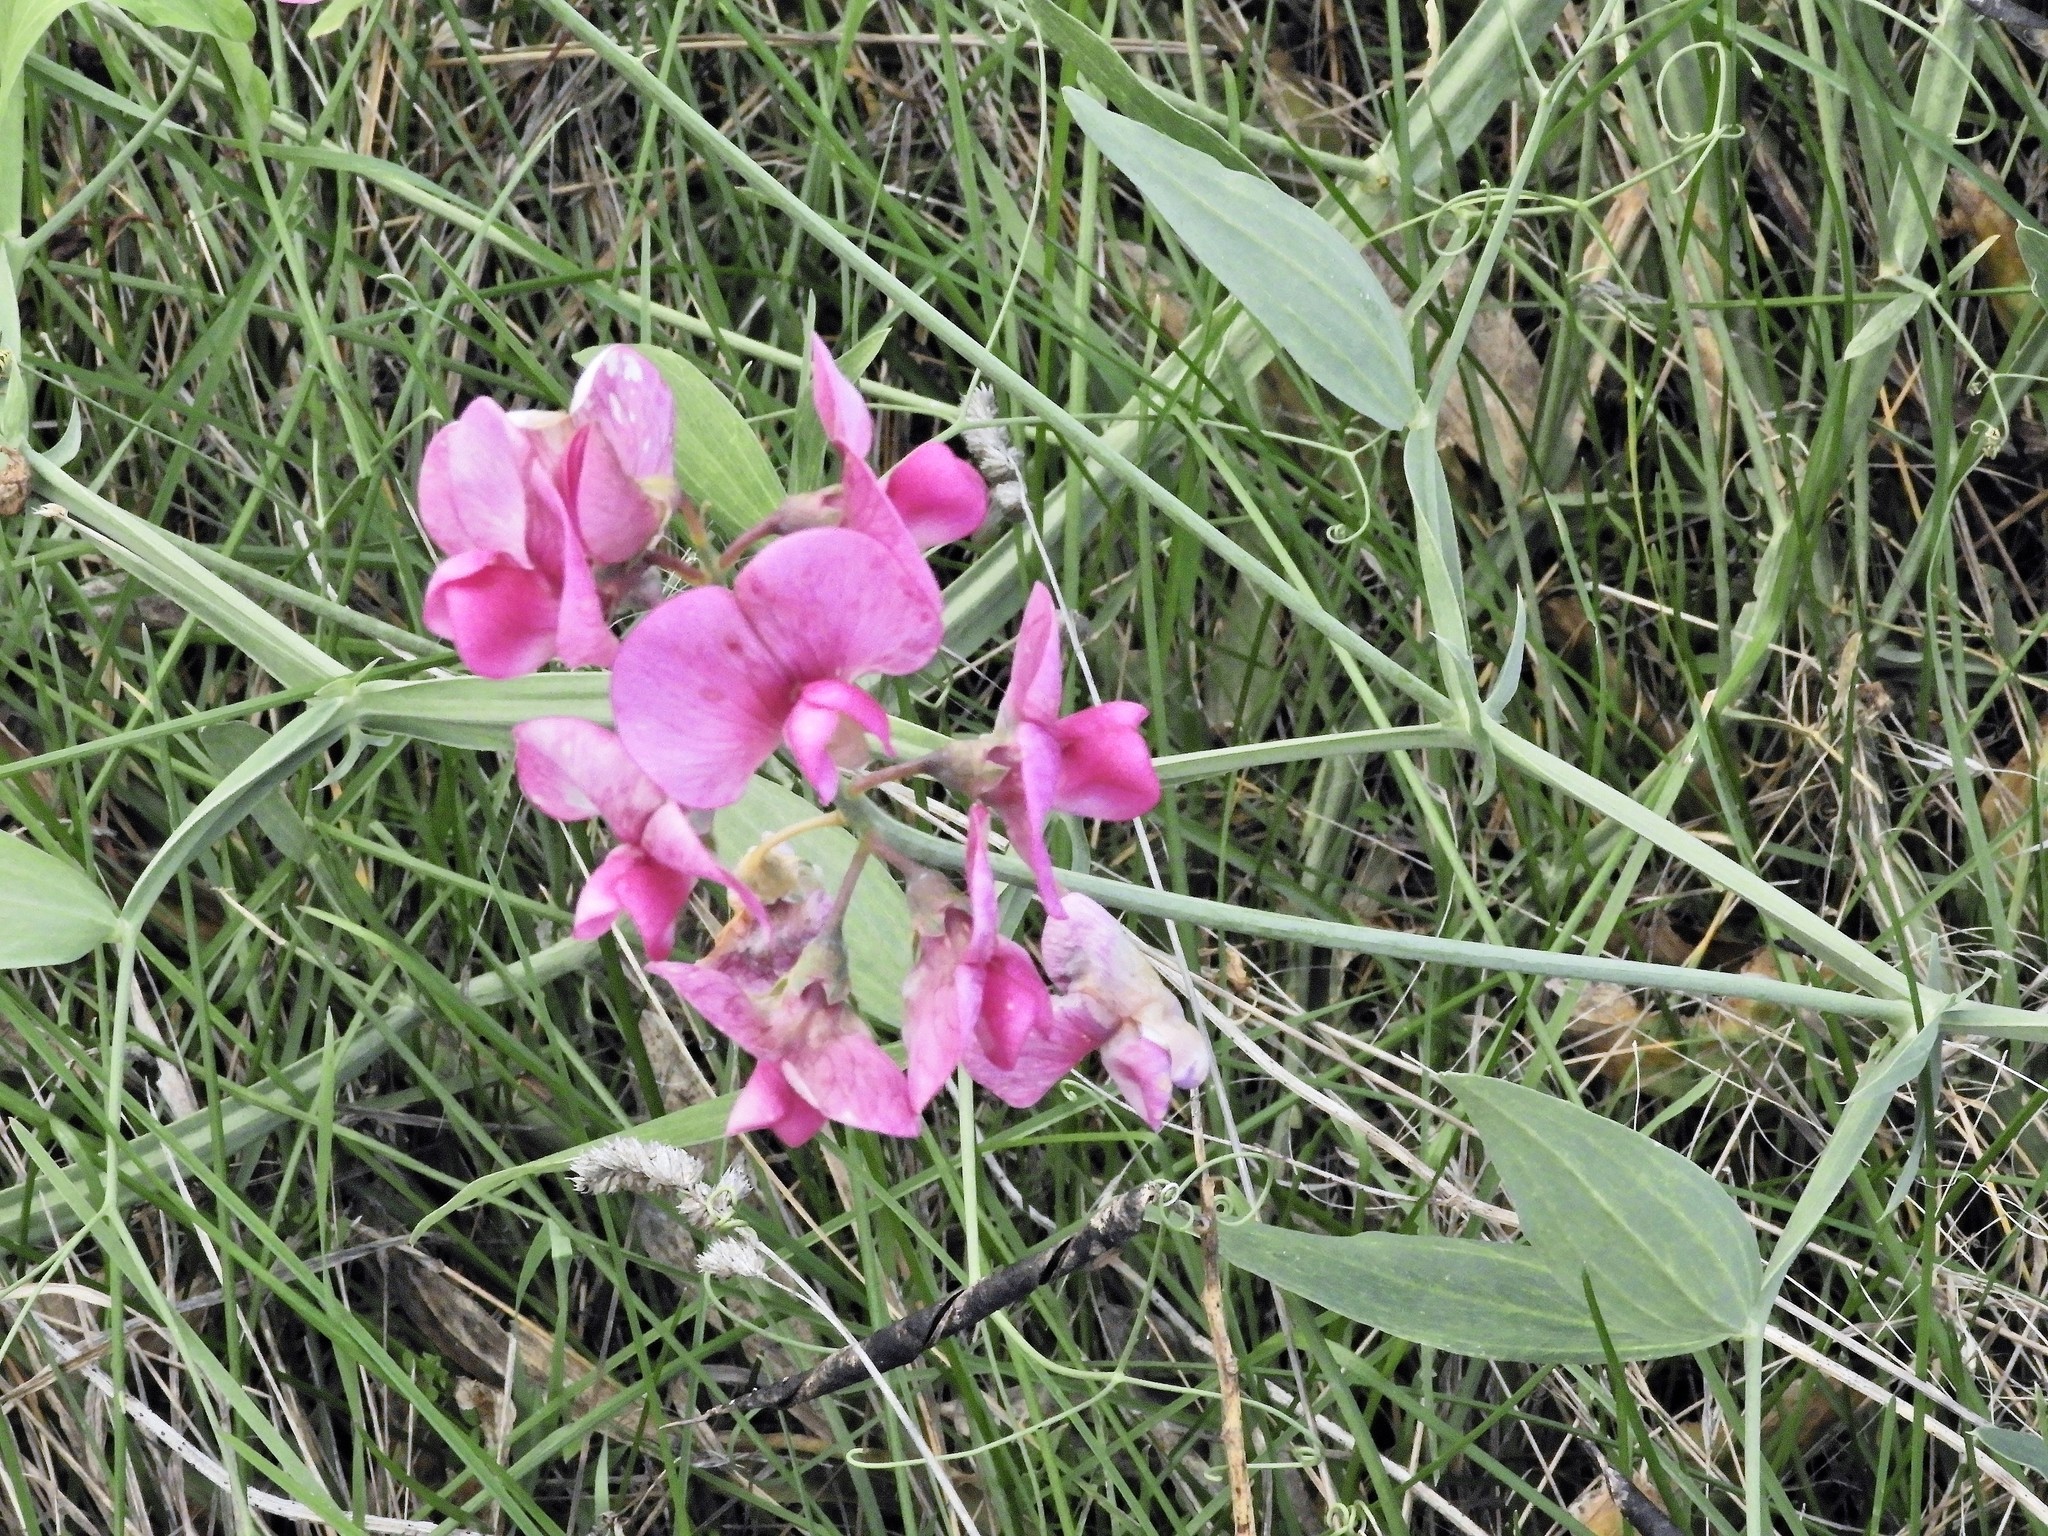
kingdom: Plantae
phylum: Tracheophyta
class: Magnoliopsida
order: Fabales
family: Fabaceae
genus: Lathyrus
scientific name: Lathyrus latifolius
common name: Perennial pea
